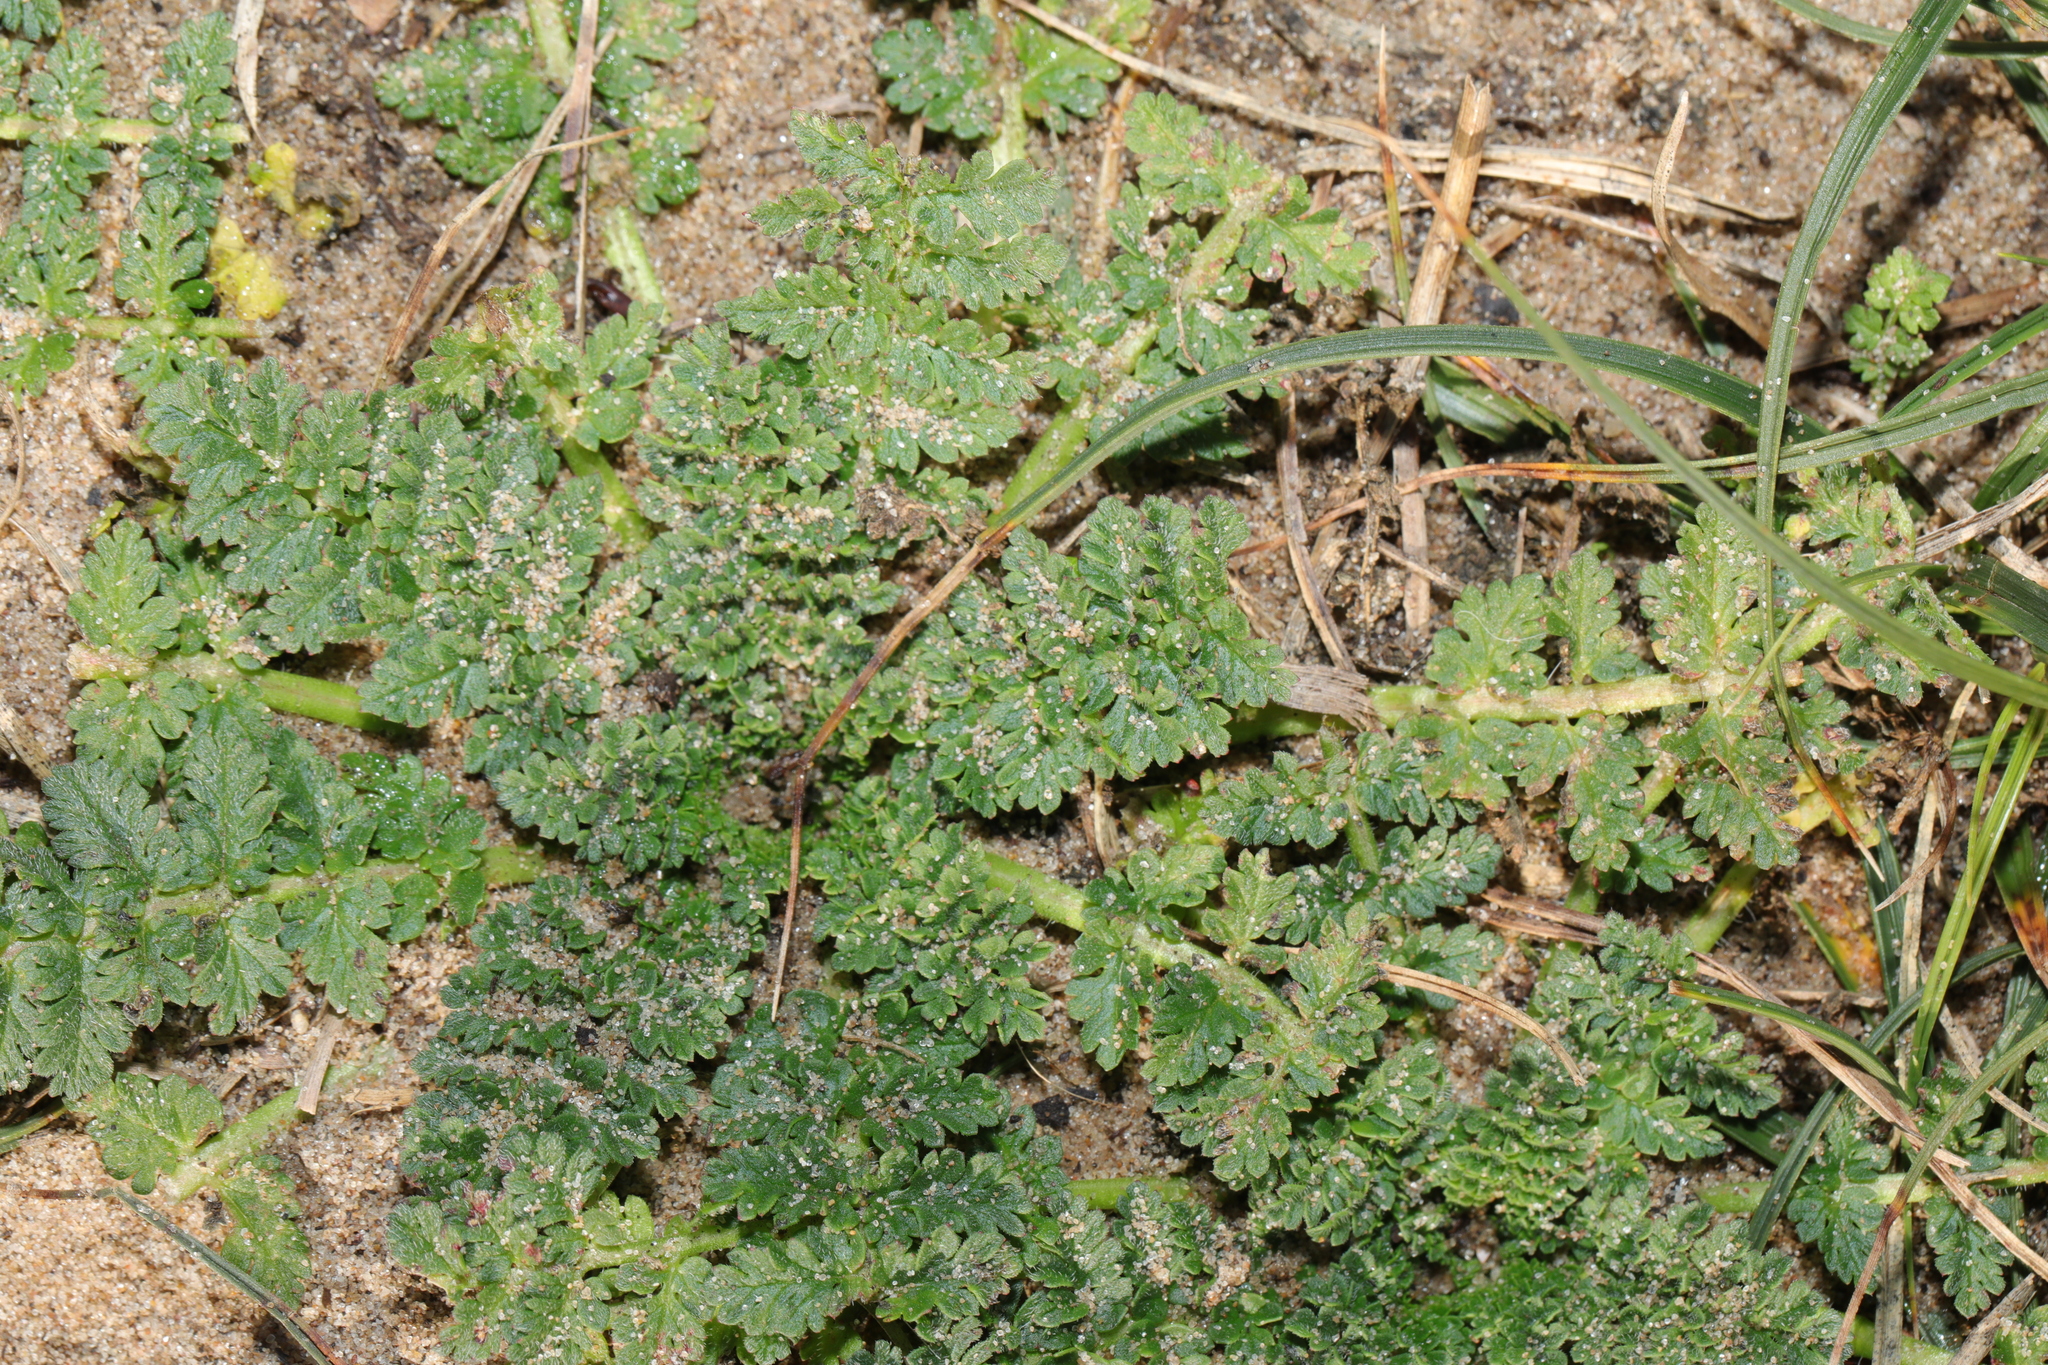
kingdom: Plantae
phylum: Tracheophyta
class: Magnoliopsida
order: Geraniales
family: Geraniaceae
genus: Erodium
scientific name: Erodium cicutarium
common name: Common stork's-bill
